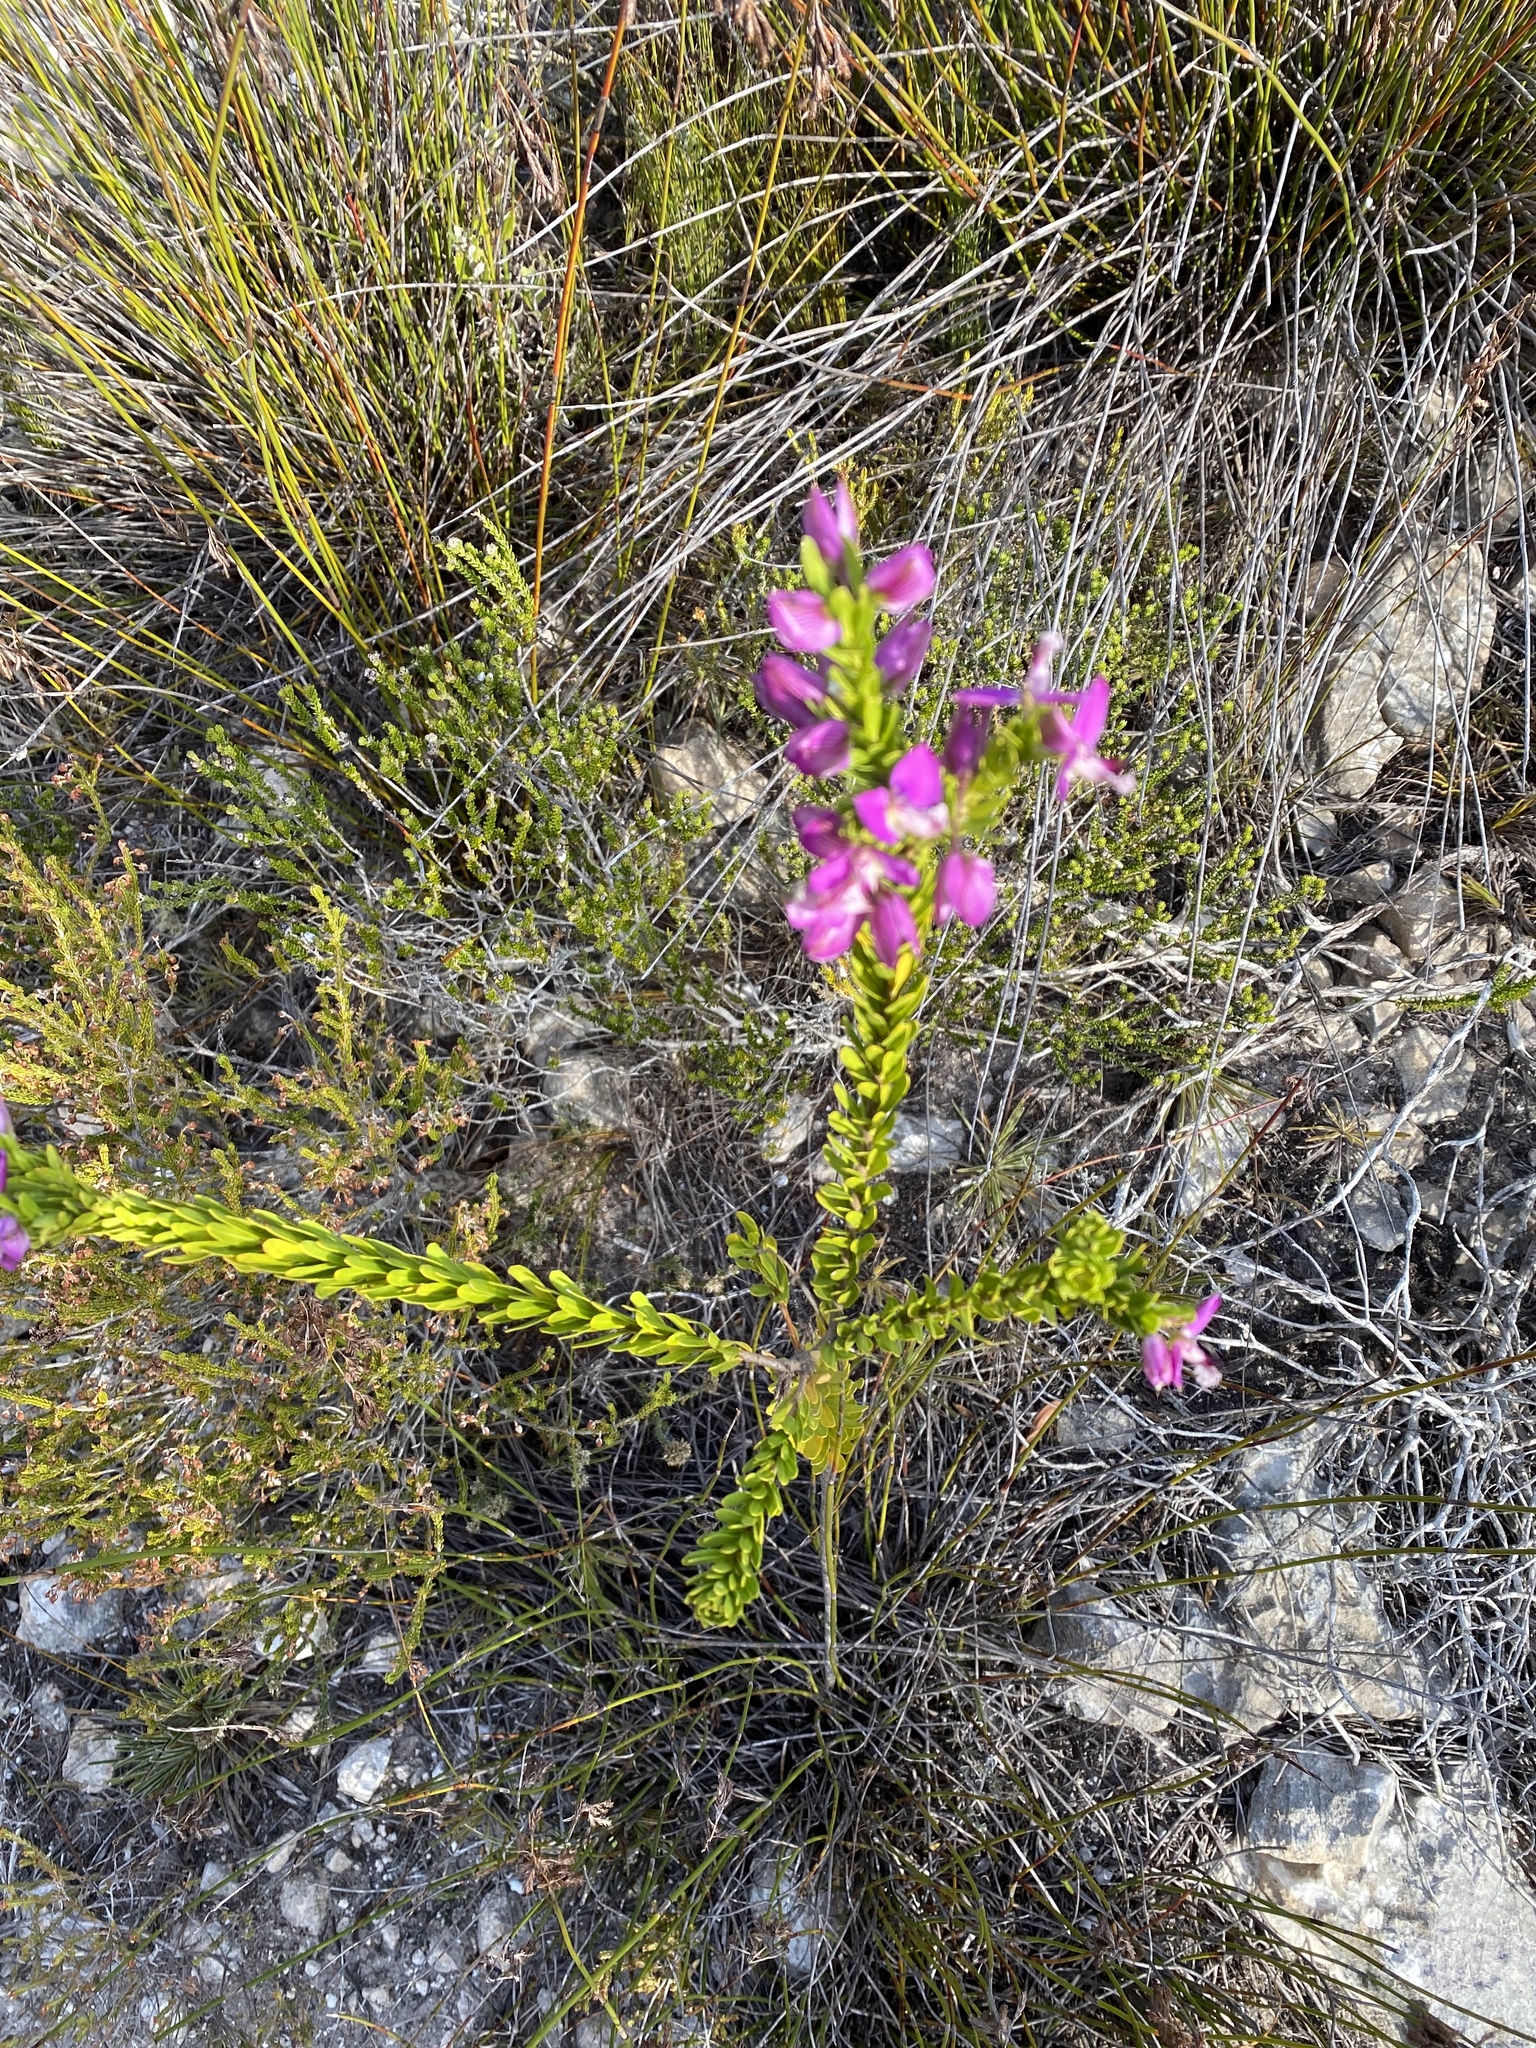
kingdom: Plantae
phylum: Tracheophyta
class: Magnoliopsida
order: Fabales
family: Polygalaceae
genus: Polygala
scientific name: Polygala myrtifolia
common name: Myrtle-leaf milkwort
